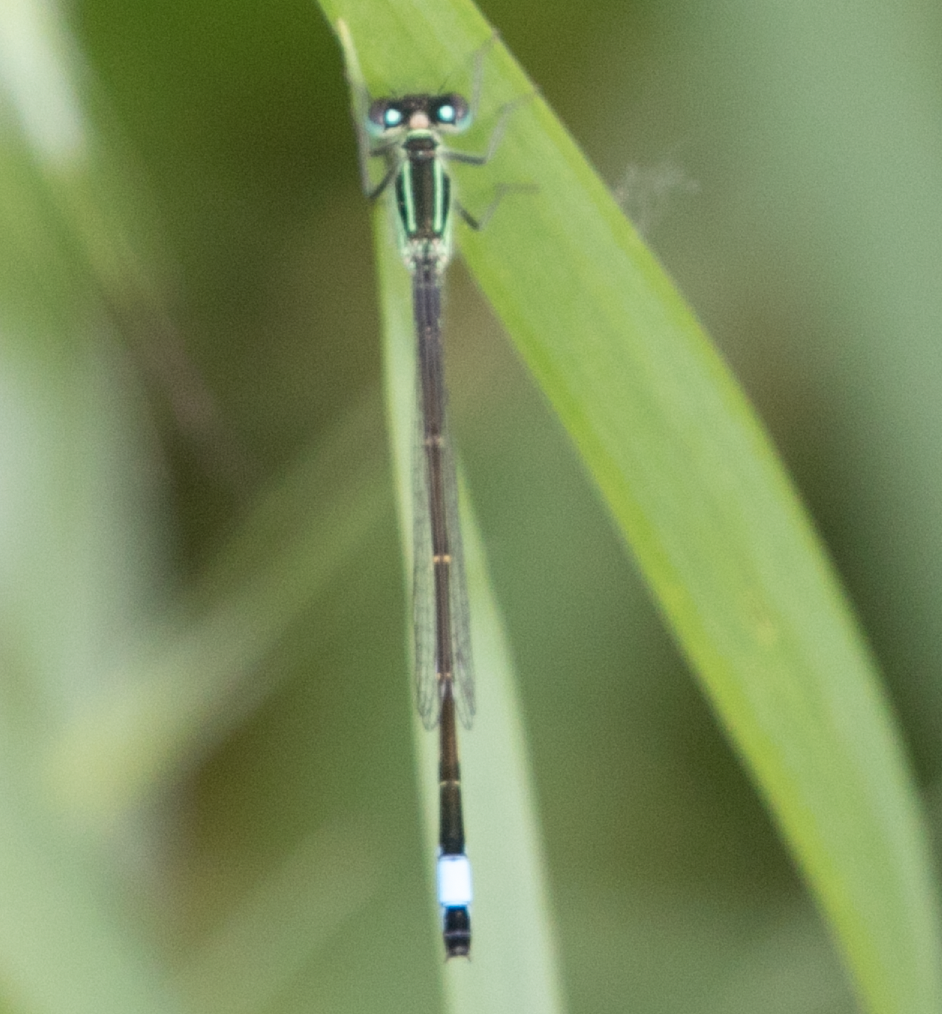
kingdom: Animalia
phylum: Arthropoda
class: Insecta
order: Odonata
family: Coenagrionidae
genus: Ischnura
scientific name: Ischnura elegans
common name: Blue-tailed damselfly
